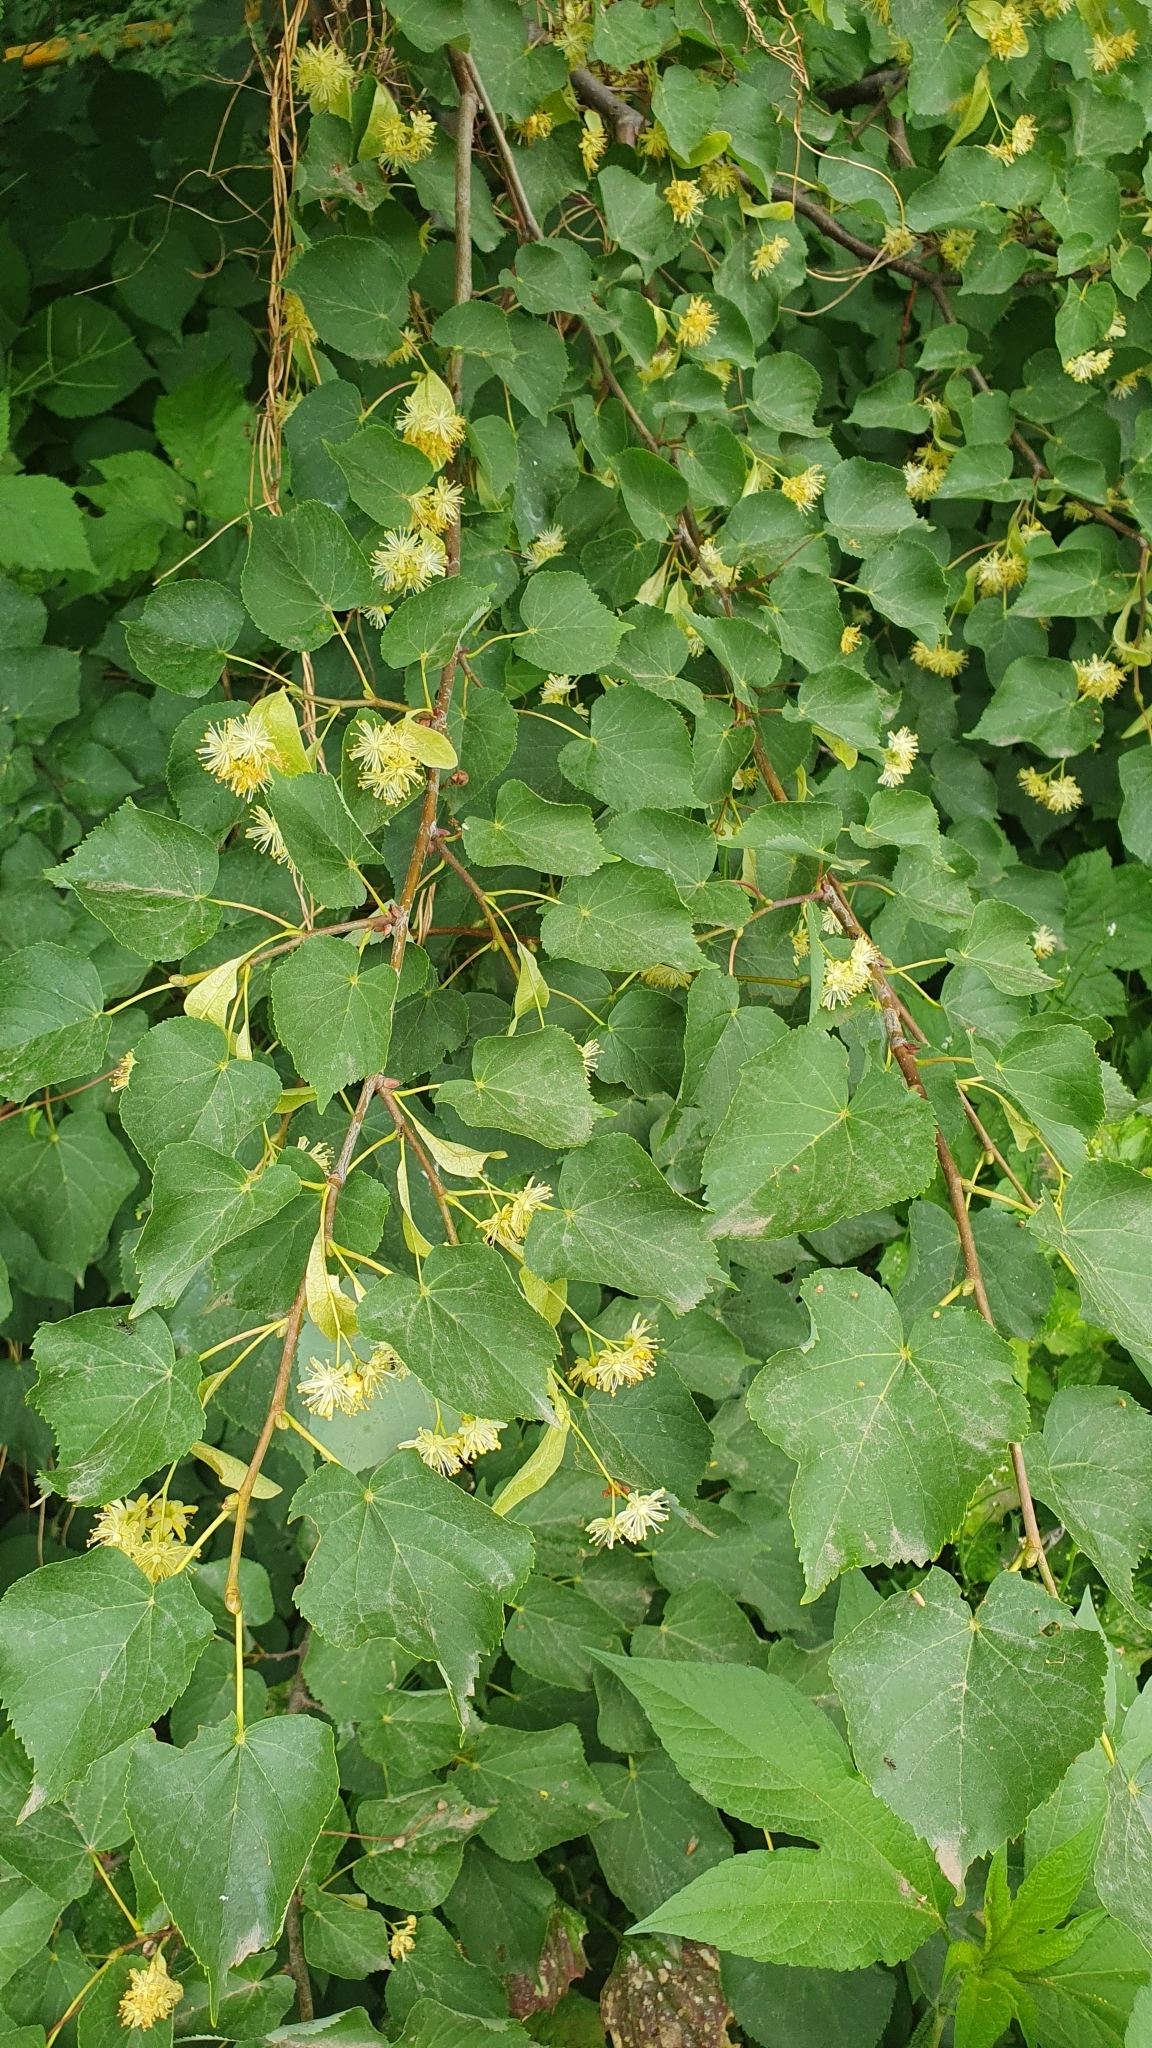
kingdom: Plantae
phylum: Tracheophyta
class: Magnoliopsida
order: Malvales
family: Malvaceae
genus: Tilia
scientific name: Tilia cordata
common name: Small-leaved lime
